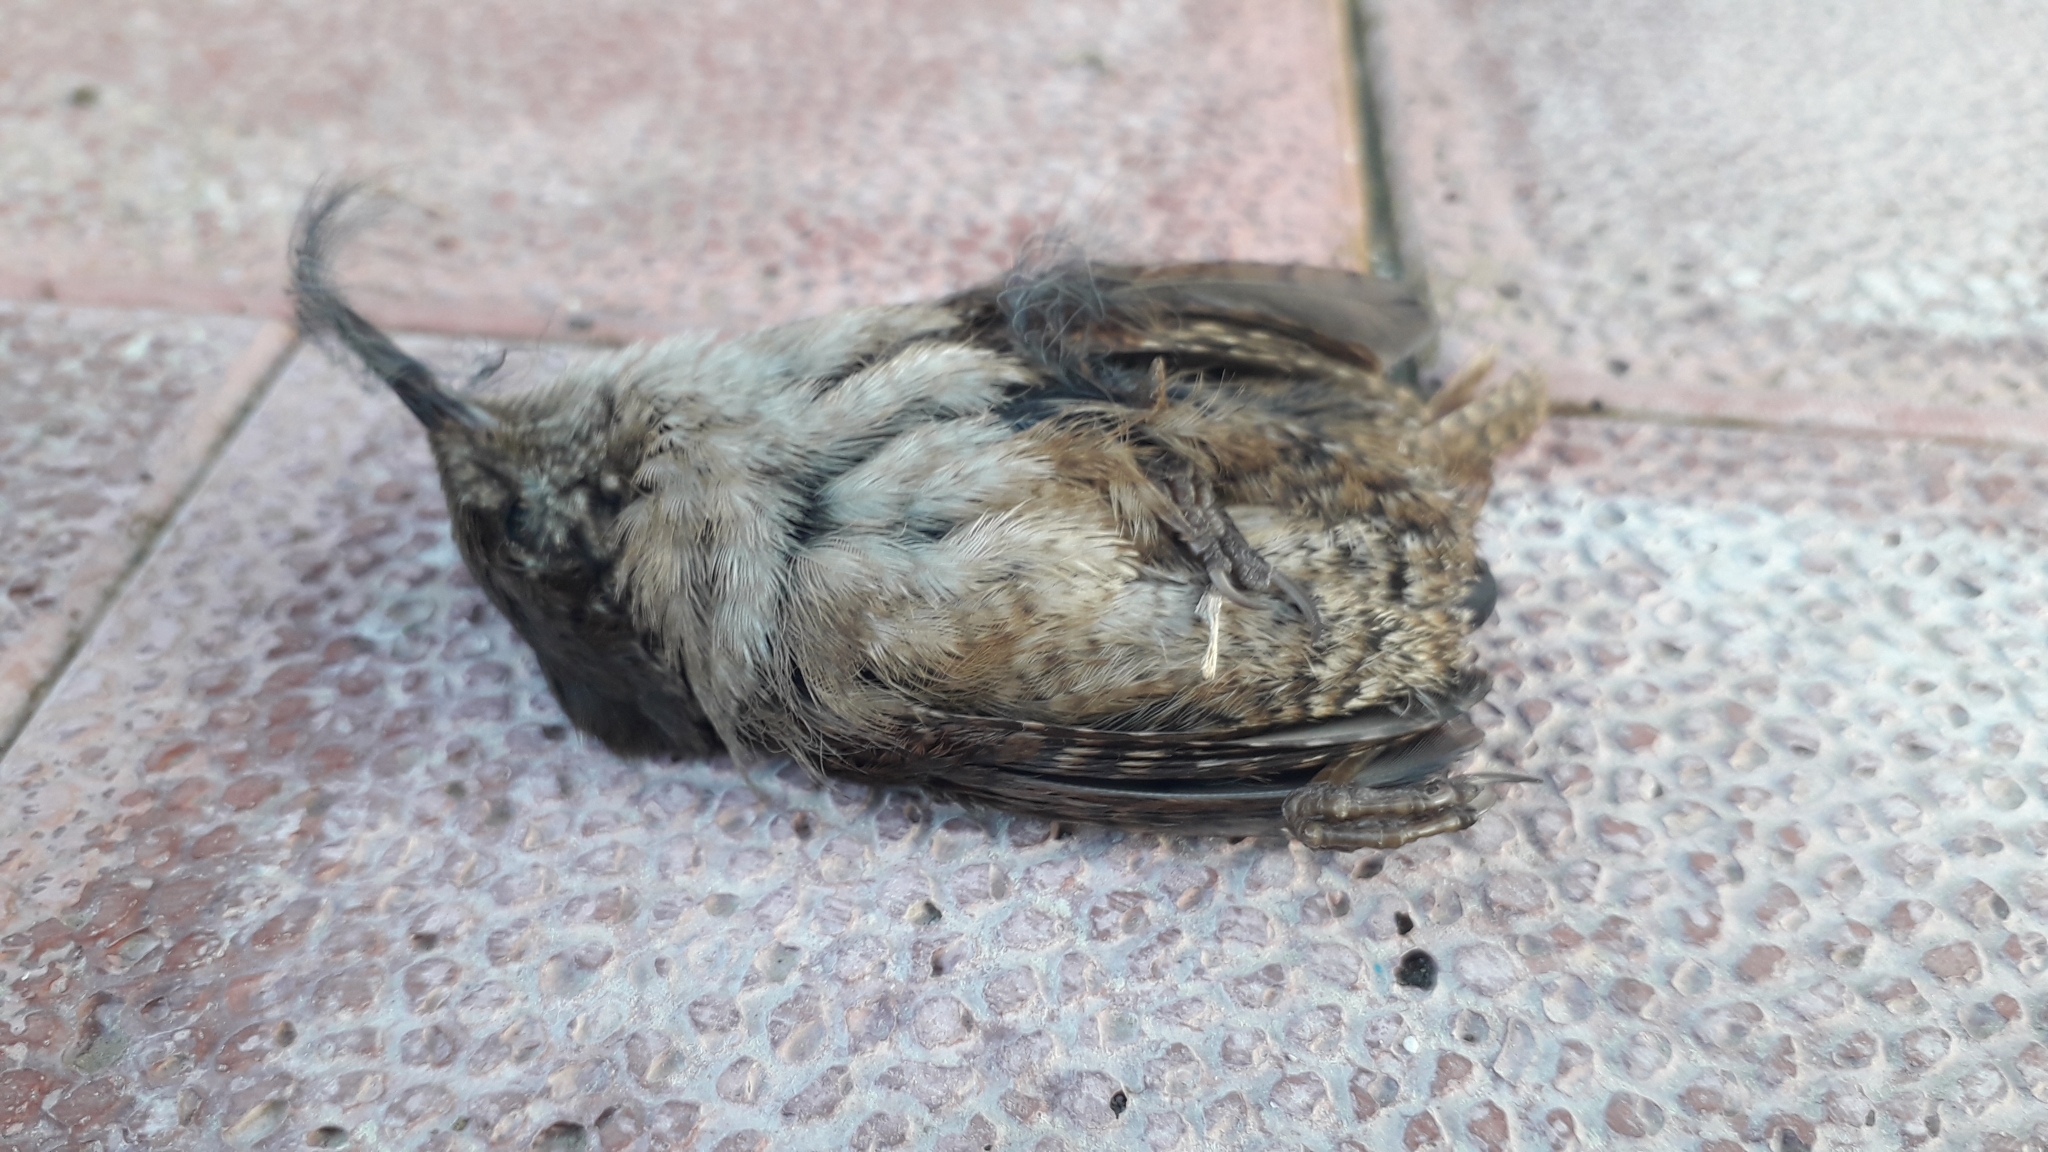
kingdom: Animalia
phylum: Chordata
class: Aves
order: Passeriformes
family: Troglodytidae
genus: Troglodytes
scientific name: Troglodytes troglodytes
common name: Eurasian wren
